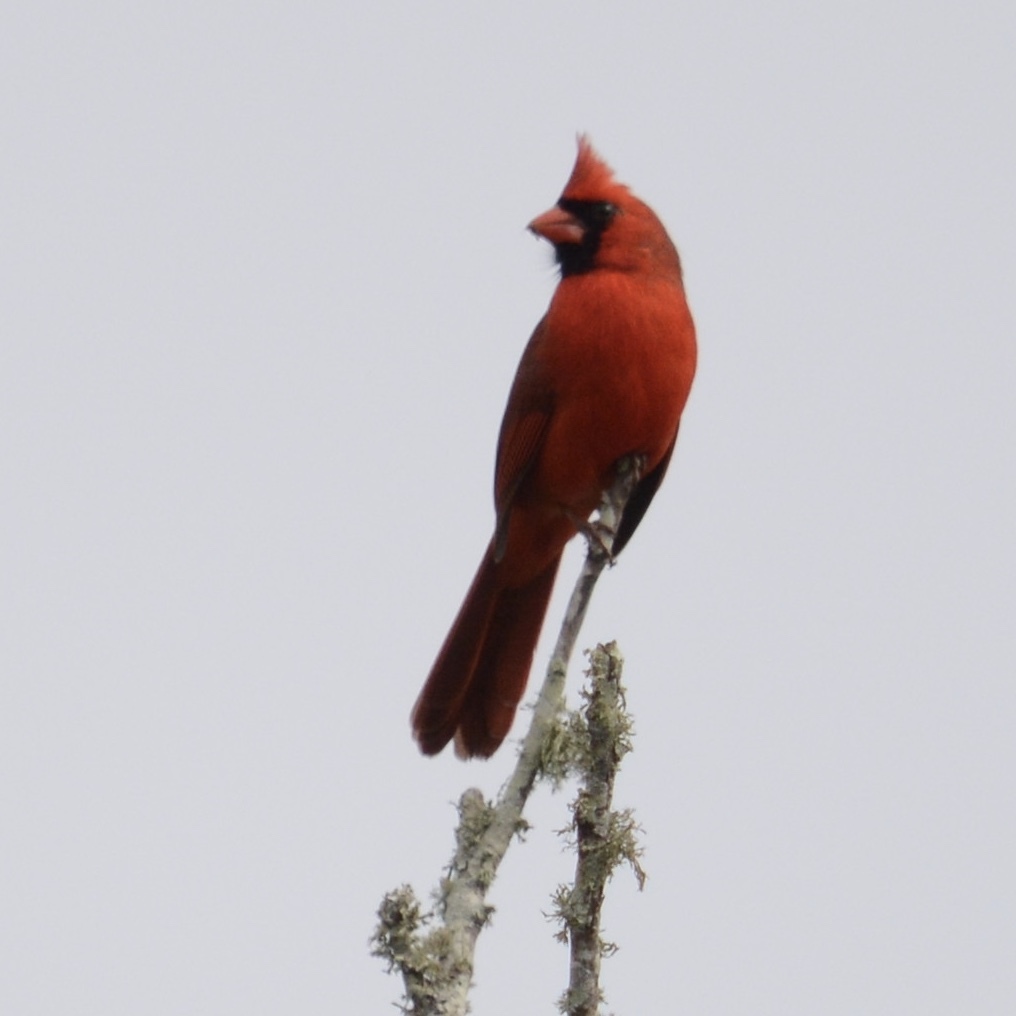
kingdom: Animalia
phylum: Chordata
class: Aves
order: Passeriformes
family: Cardinalidae
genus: Cardinalis
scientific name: Cardinalis cardinalis
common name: Northern cardinal
